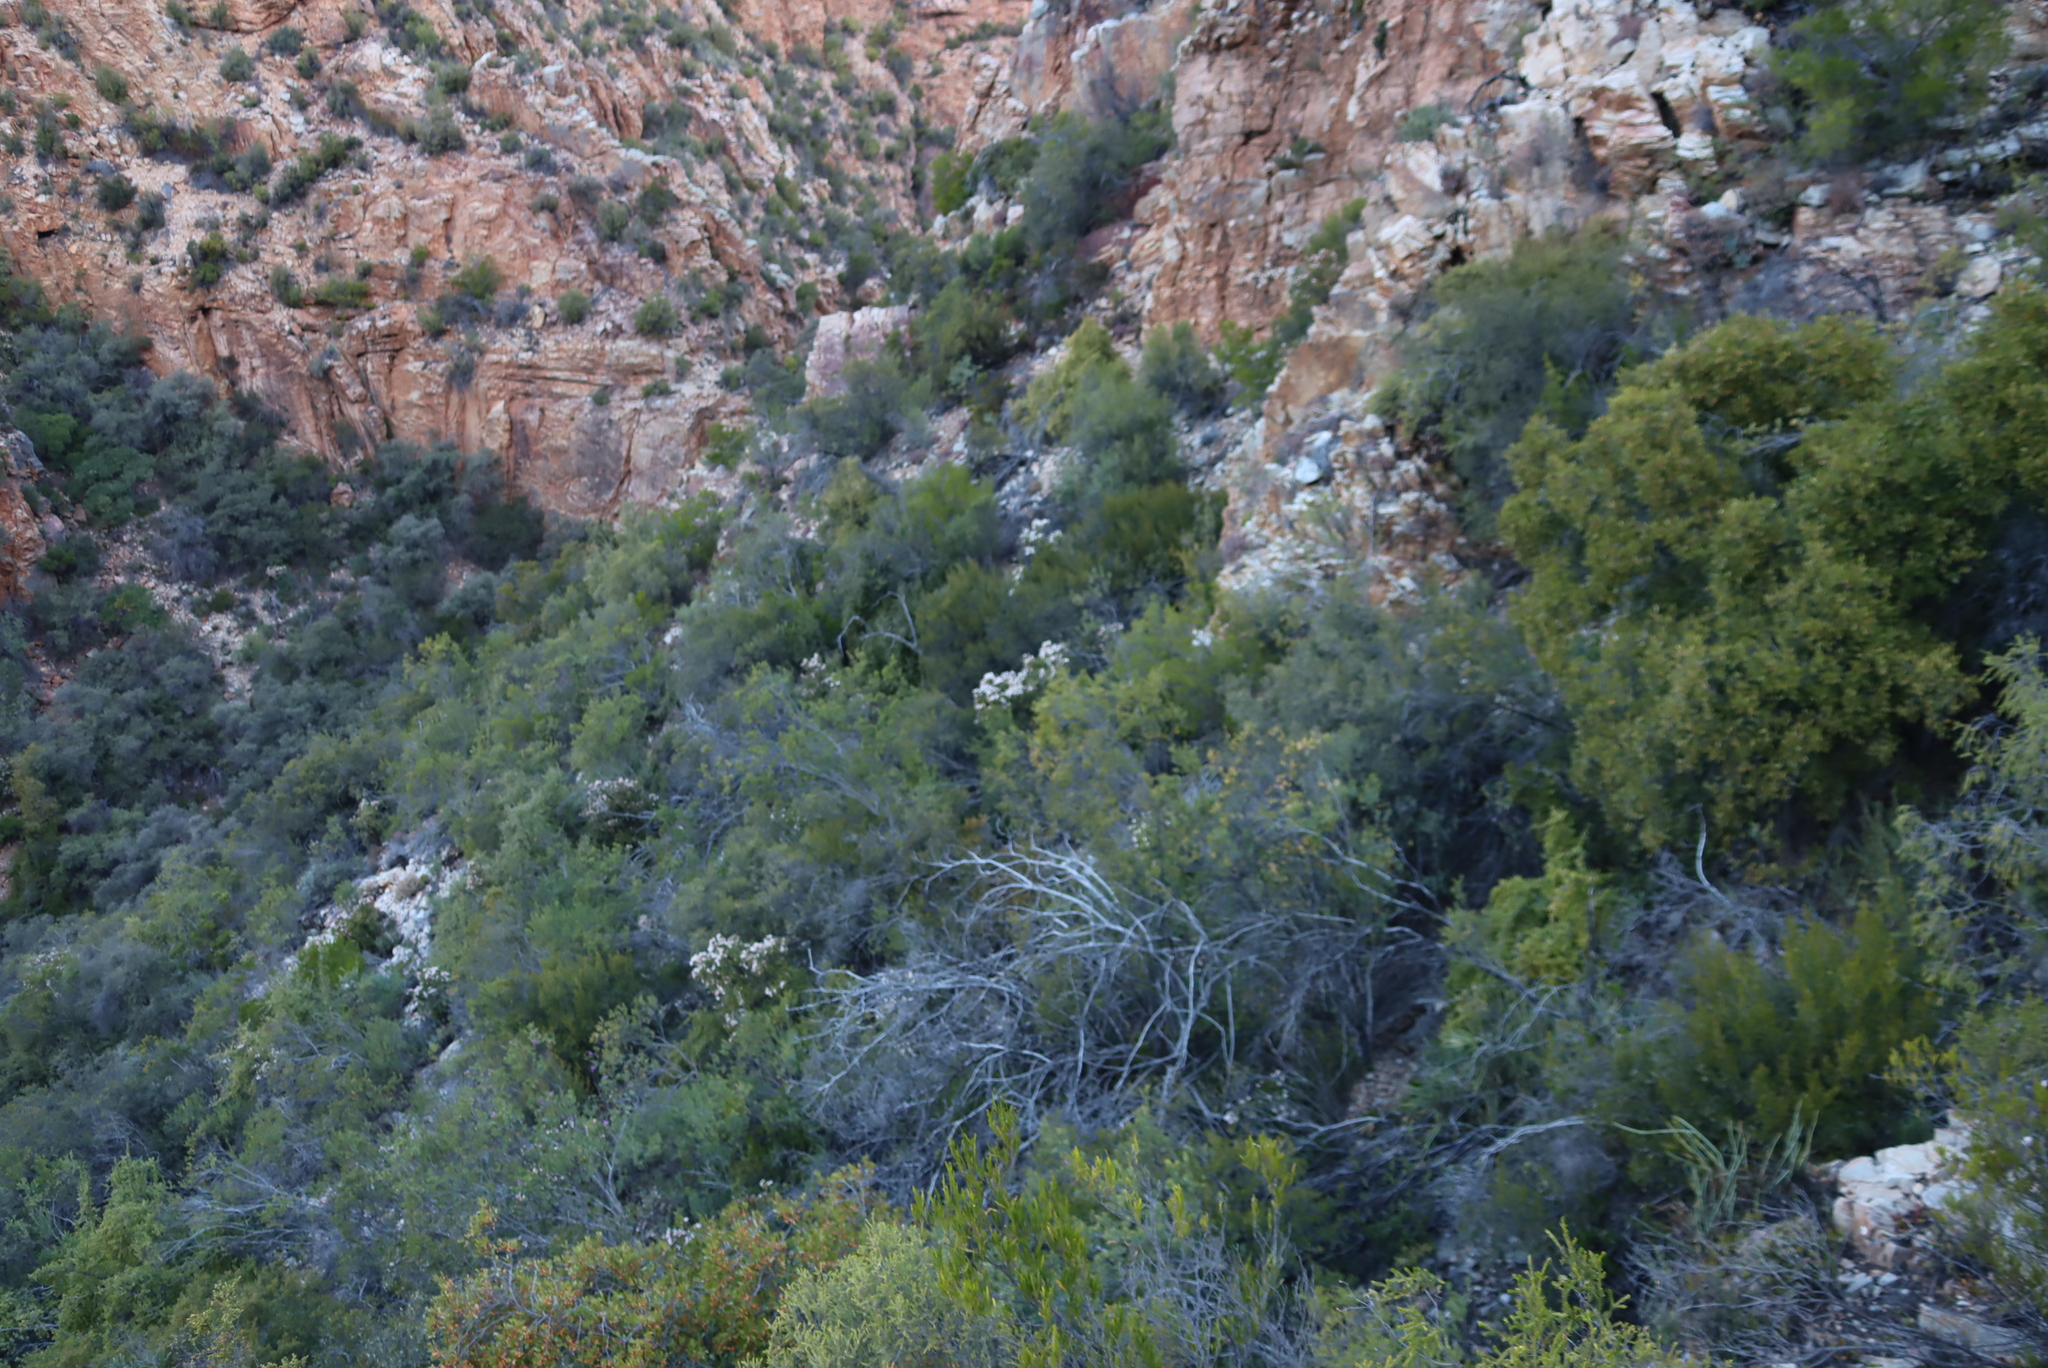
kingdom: Plantae
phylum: Tracheophyta
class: Magnoliopsida
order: Saxifragales
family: Crassulaceae
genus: Crassula
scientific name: Crassula arborescens
